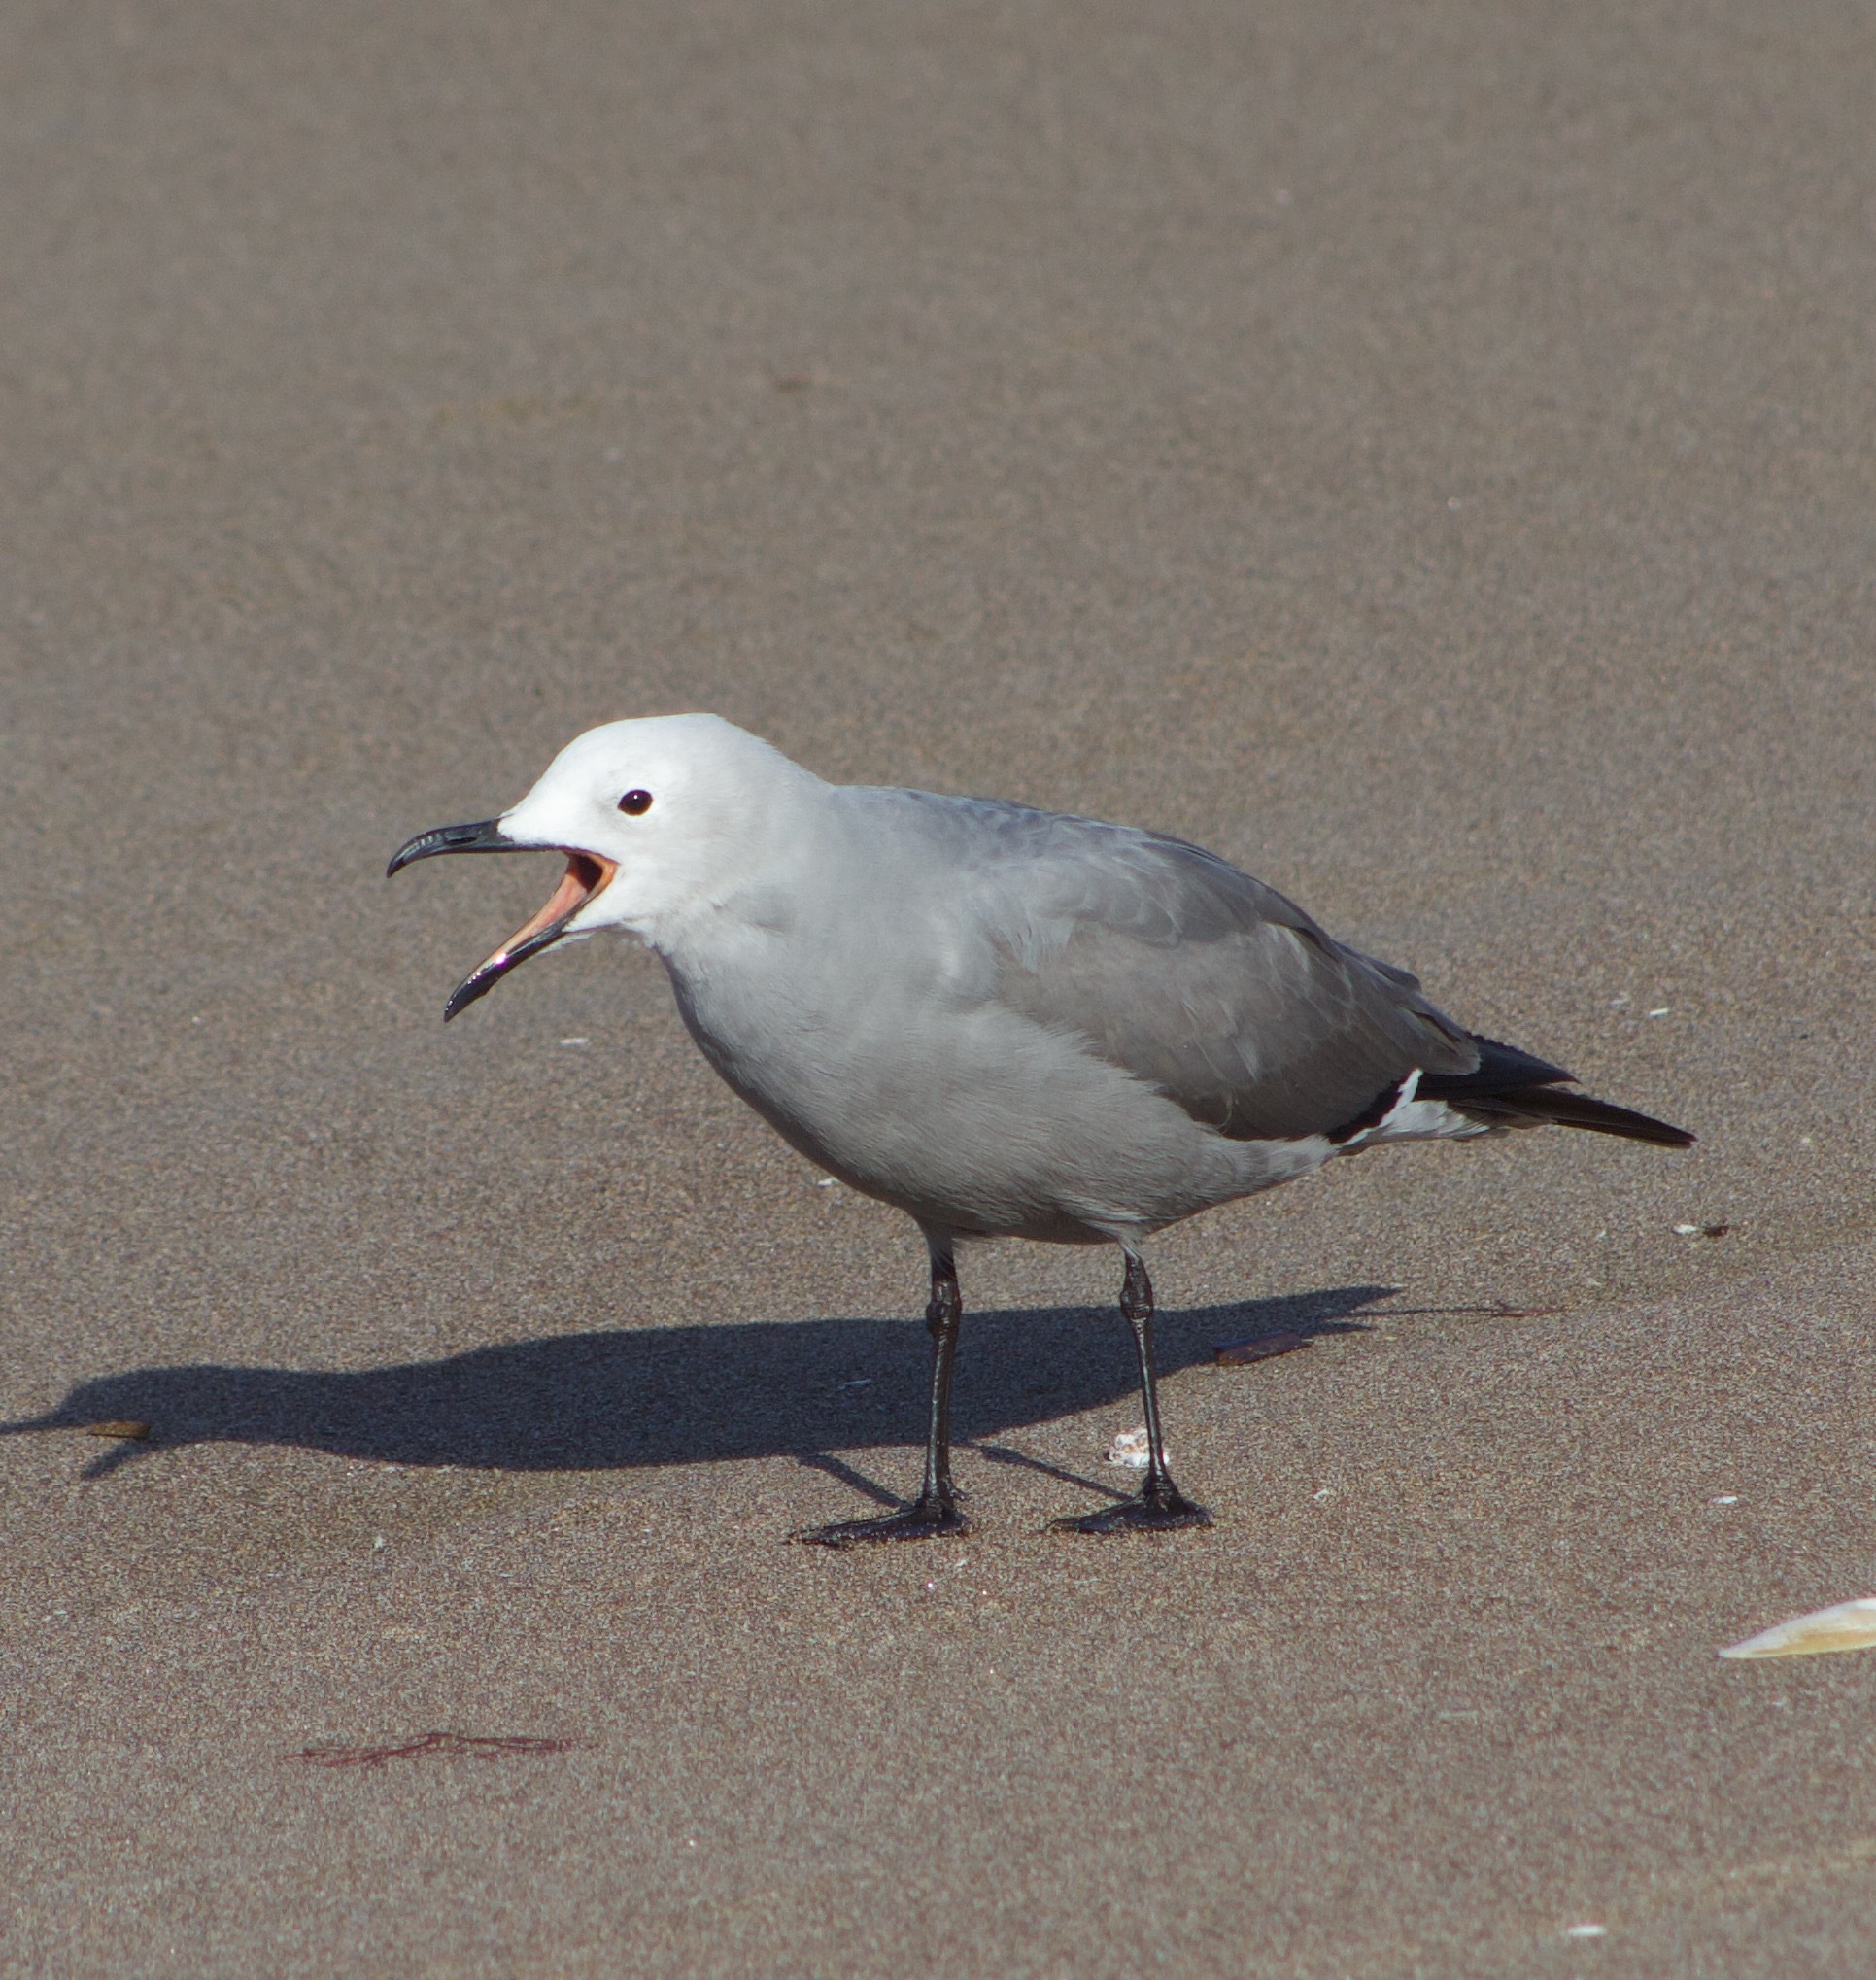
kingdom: Animalia
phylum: Chordata
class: Aves
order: Charadriiformes
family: Laridae
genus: Leucophaeus
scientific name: Leucophaeus modestus
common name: Gray gull
